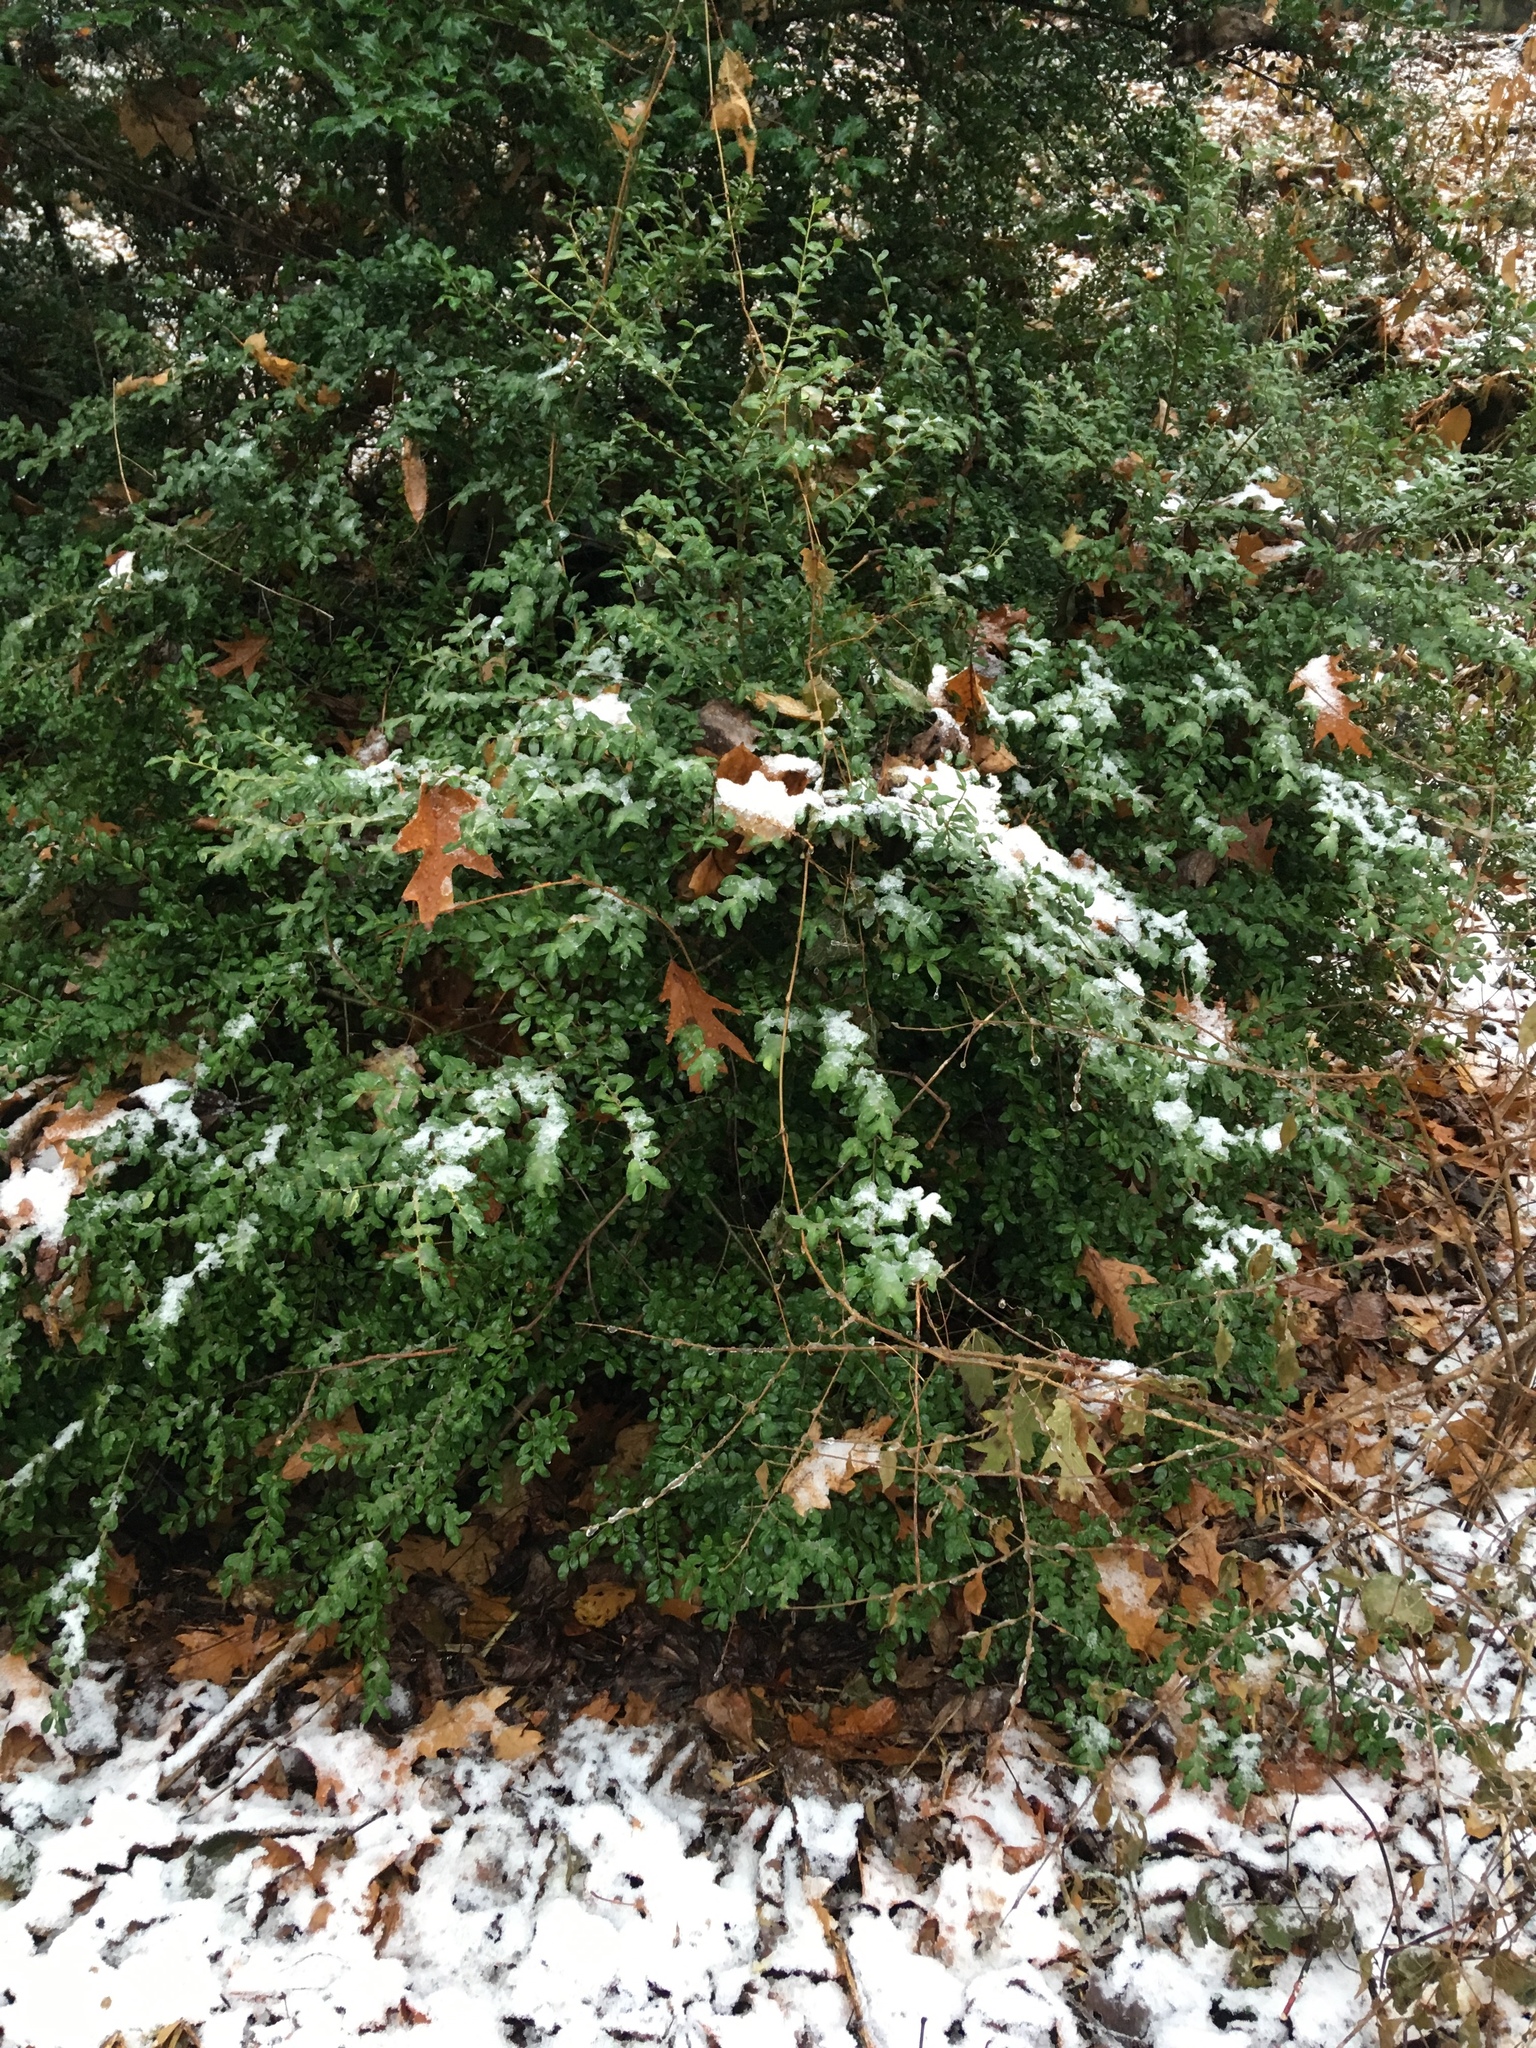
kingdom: Plantae
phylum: Tracheophyta
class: Magnoliopsida
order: Aquifoliales
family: Aquifoliaceae
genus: Ilex
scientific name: Ilex crenata
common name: Japanese holly
